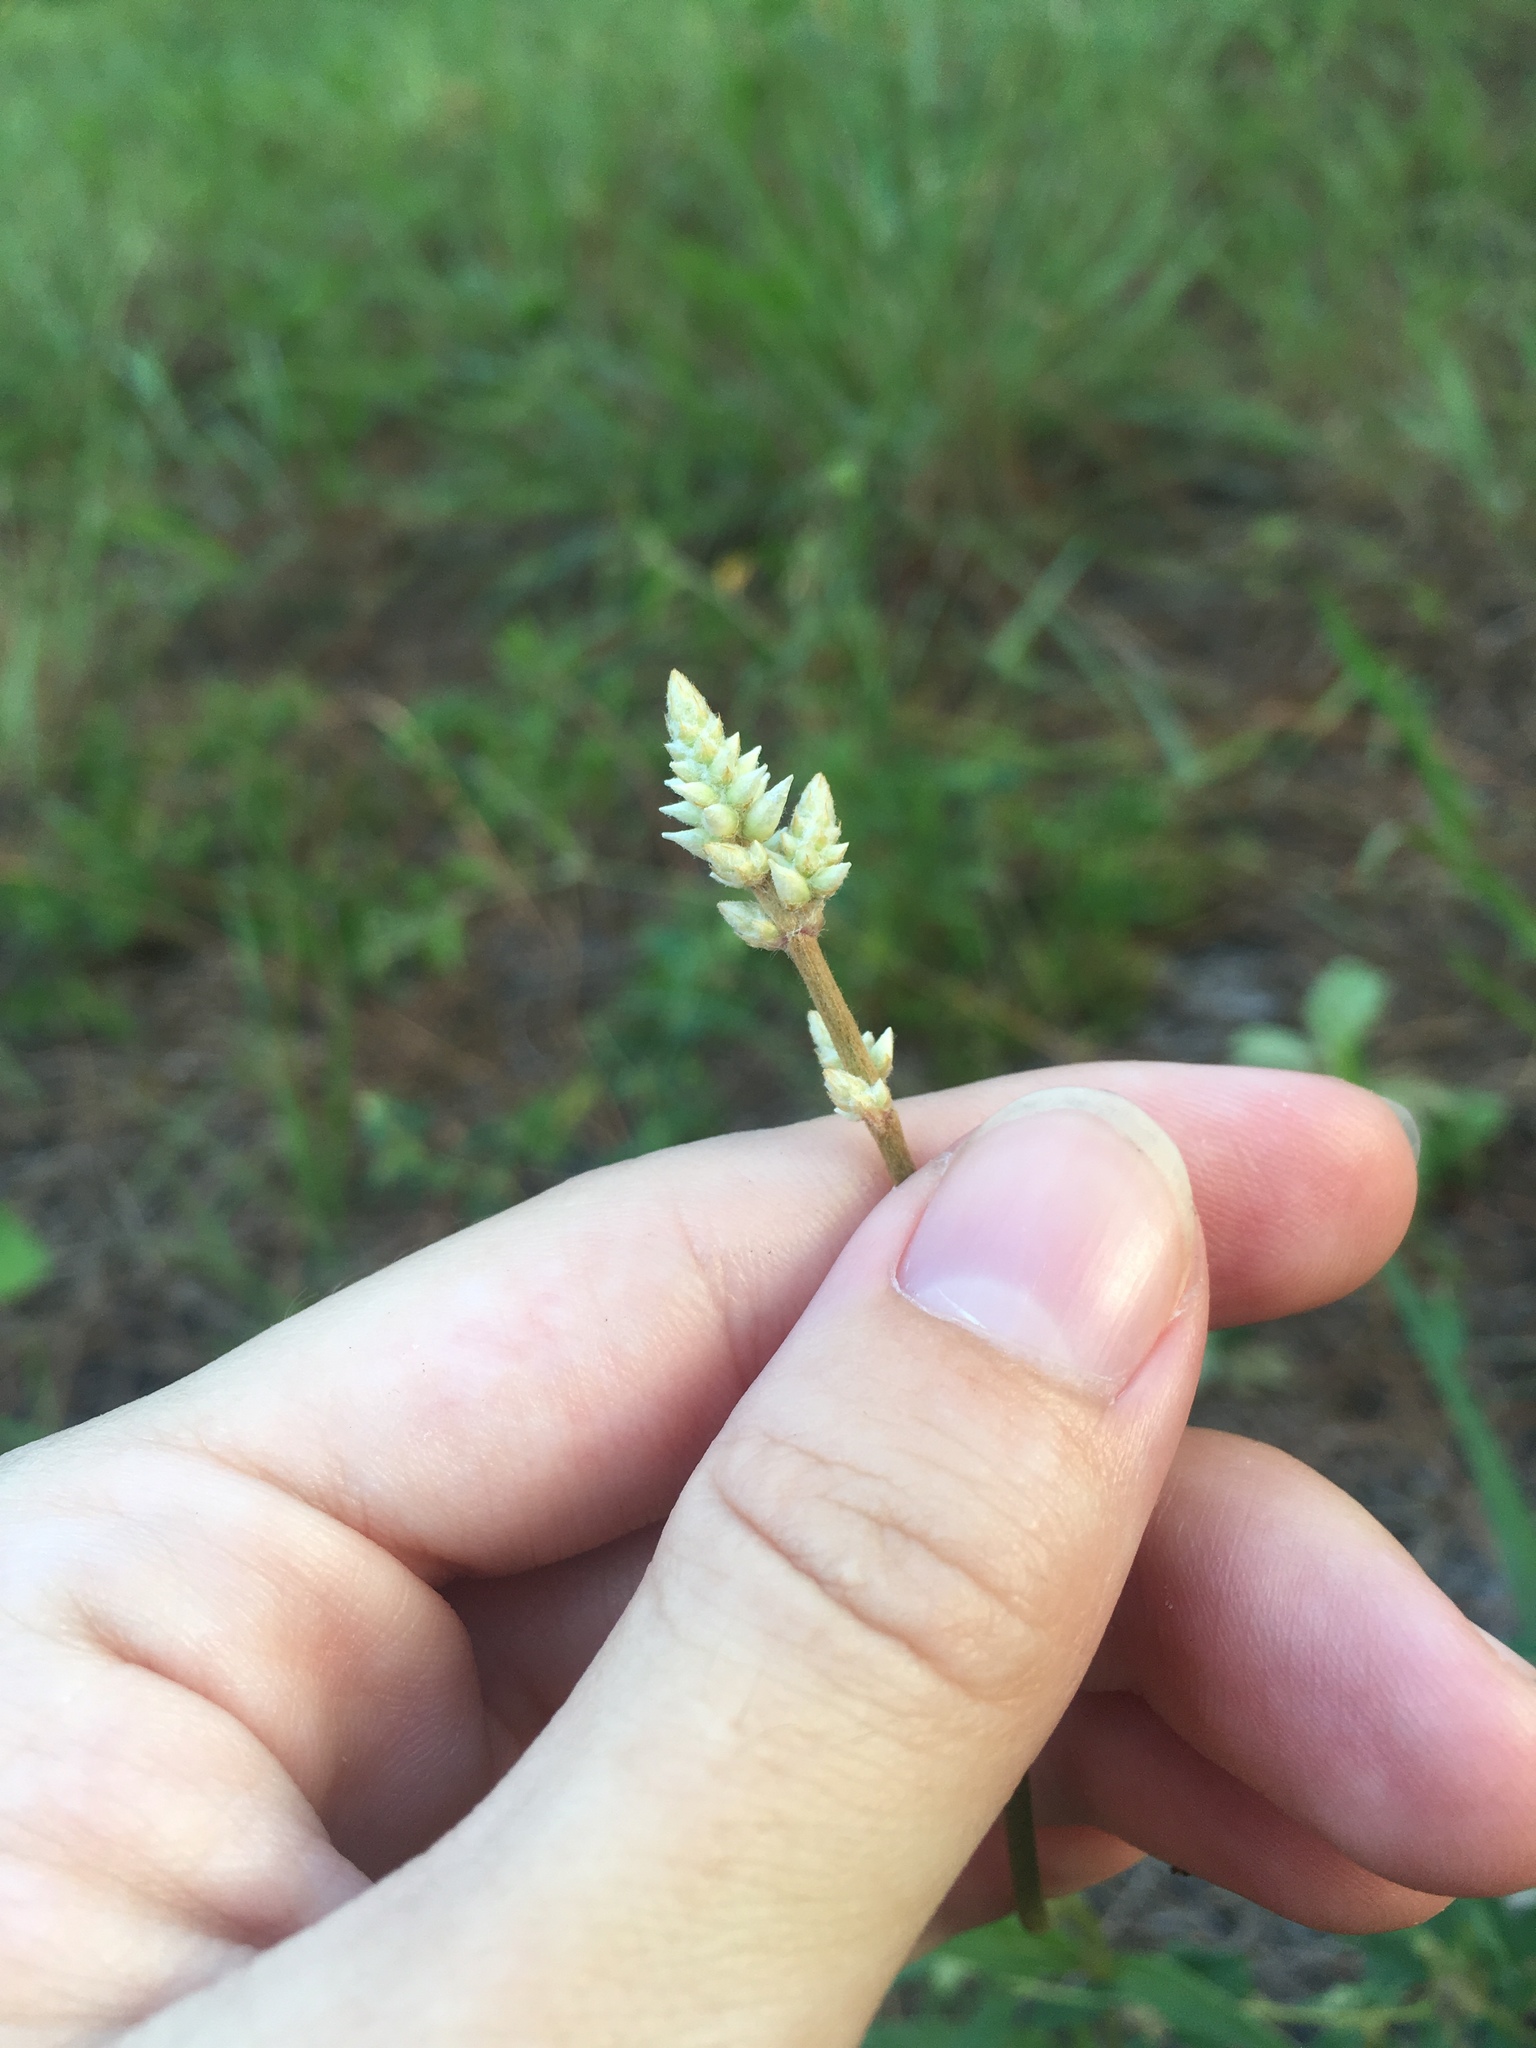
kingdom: Plantae
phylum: Tracheophyta
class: Magnoliopsida
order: Caryophyllales
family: Amaranthaceae
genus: Froelichia
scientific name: Froelichia floridana
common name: Florida snake-cotton
